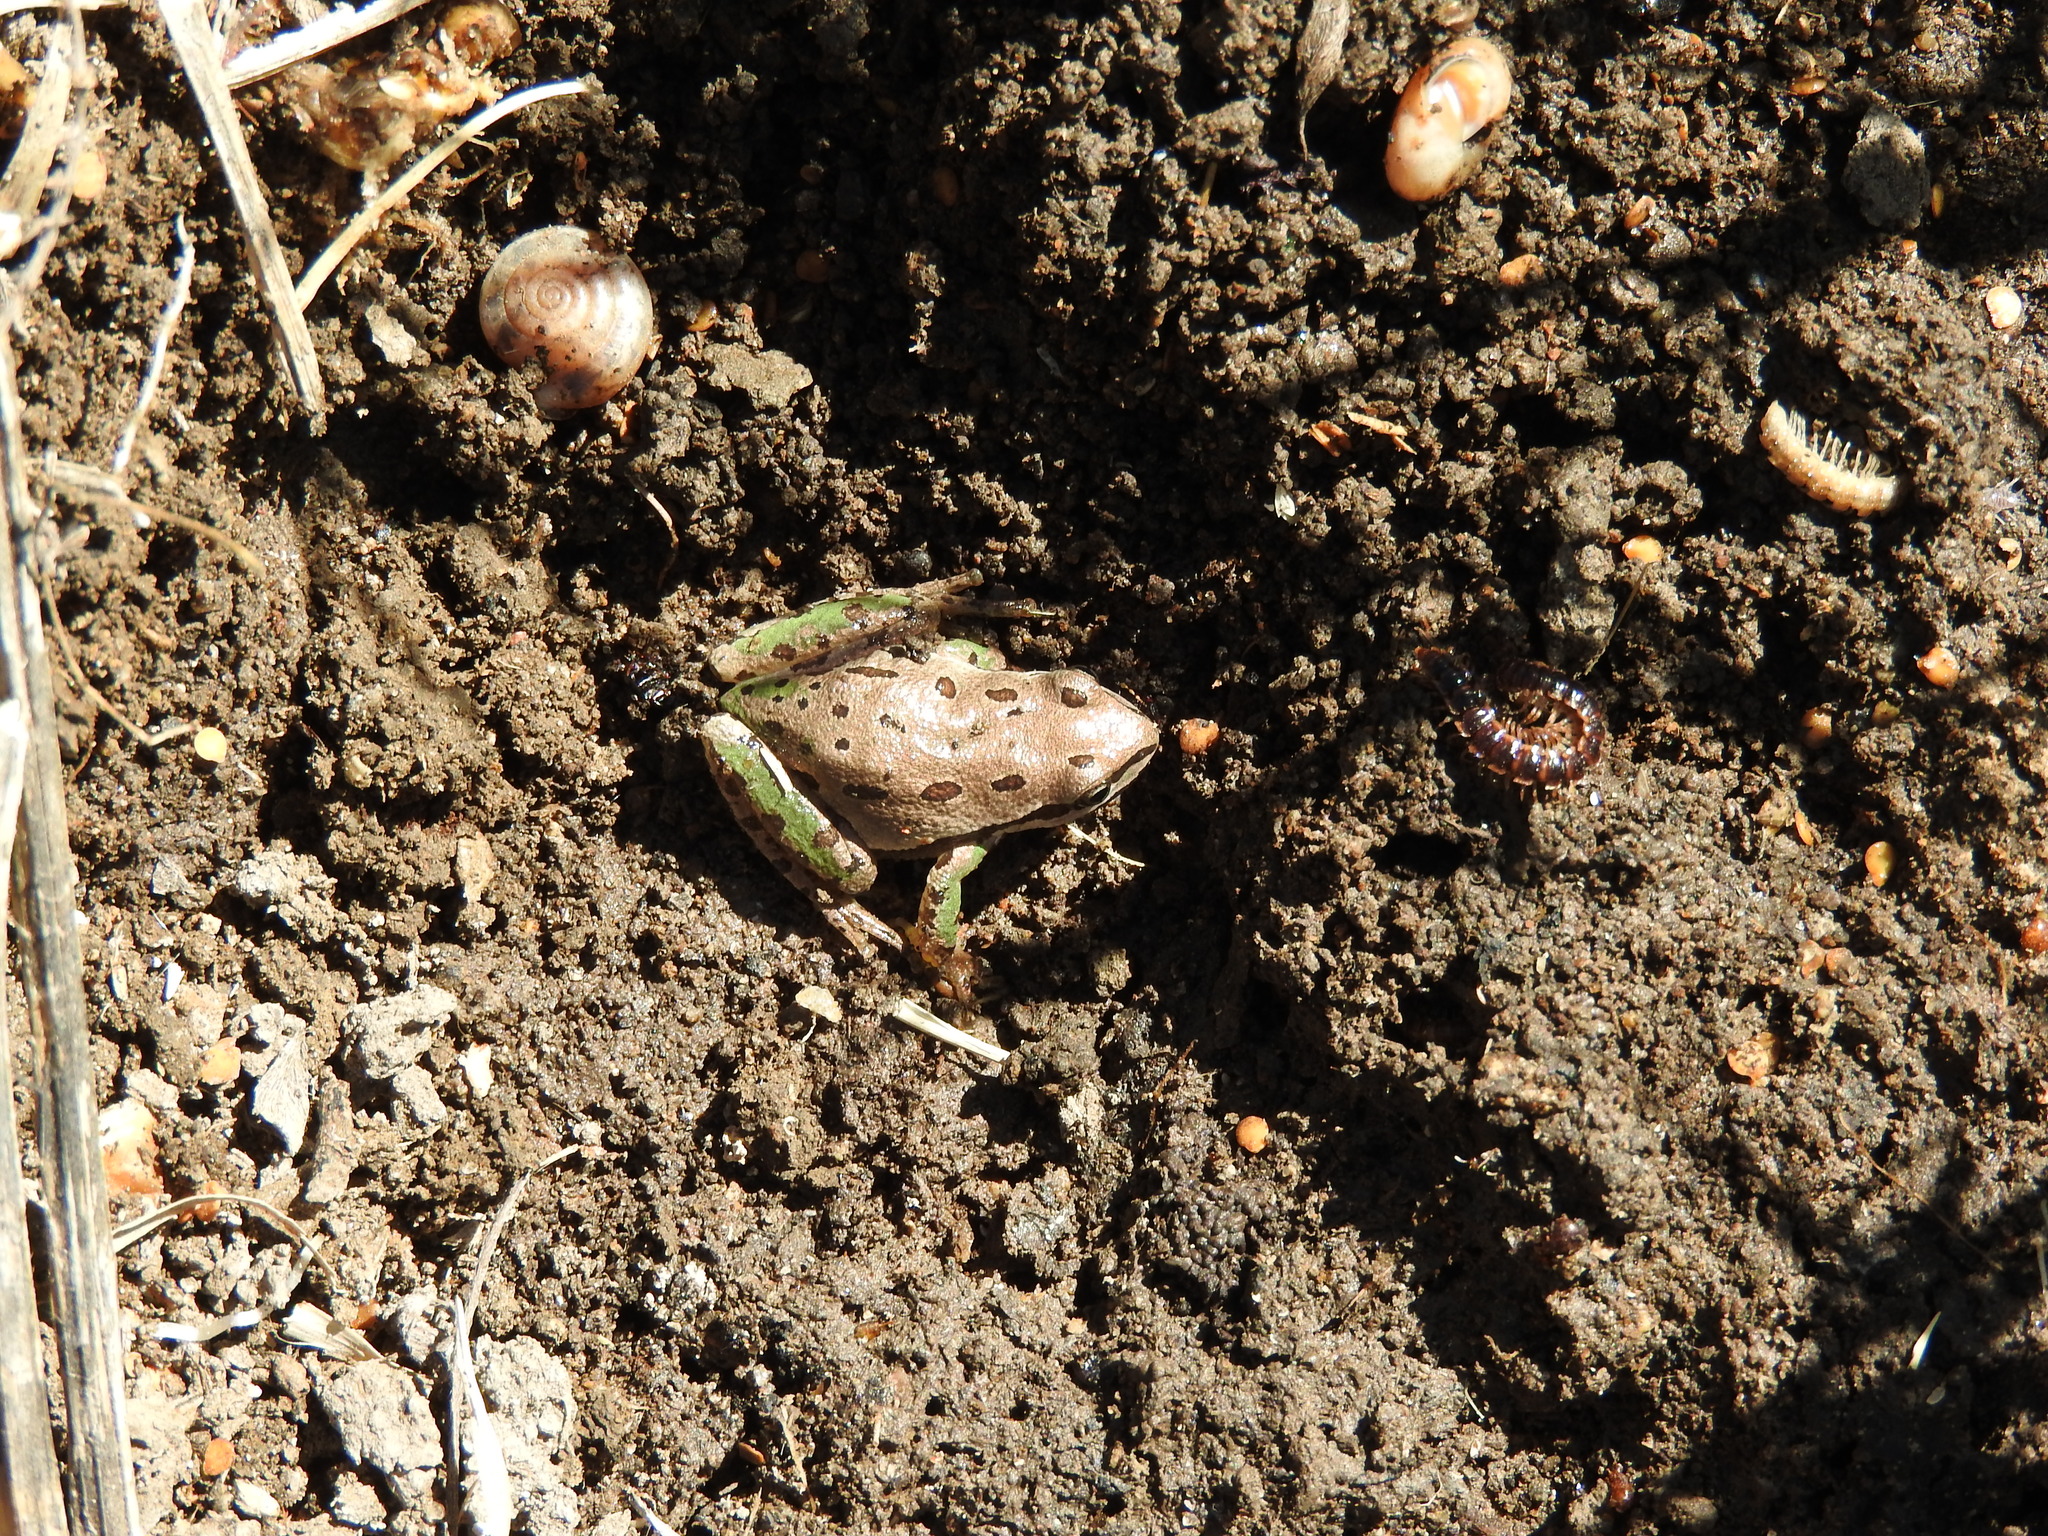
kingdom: Animalia
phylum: Chordata
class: Amphibia
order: Anura
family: Hylidae
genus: Dryophytes
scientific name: Dryophytes eximius
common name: Mountain treefrog
